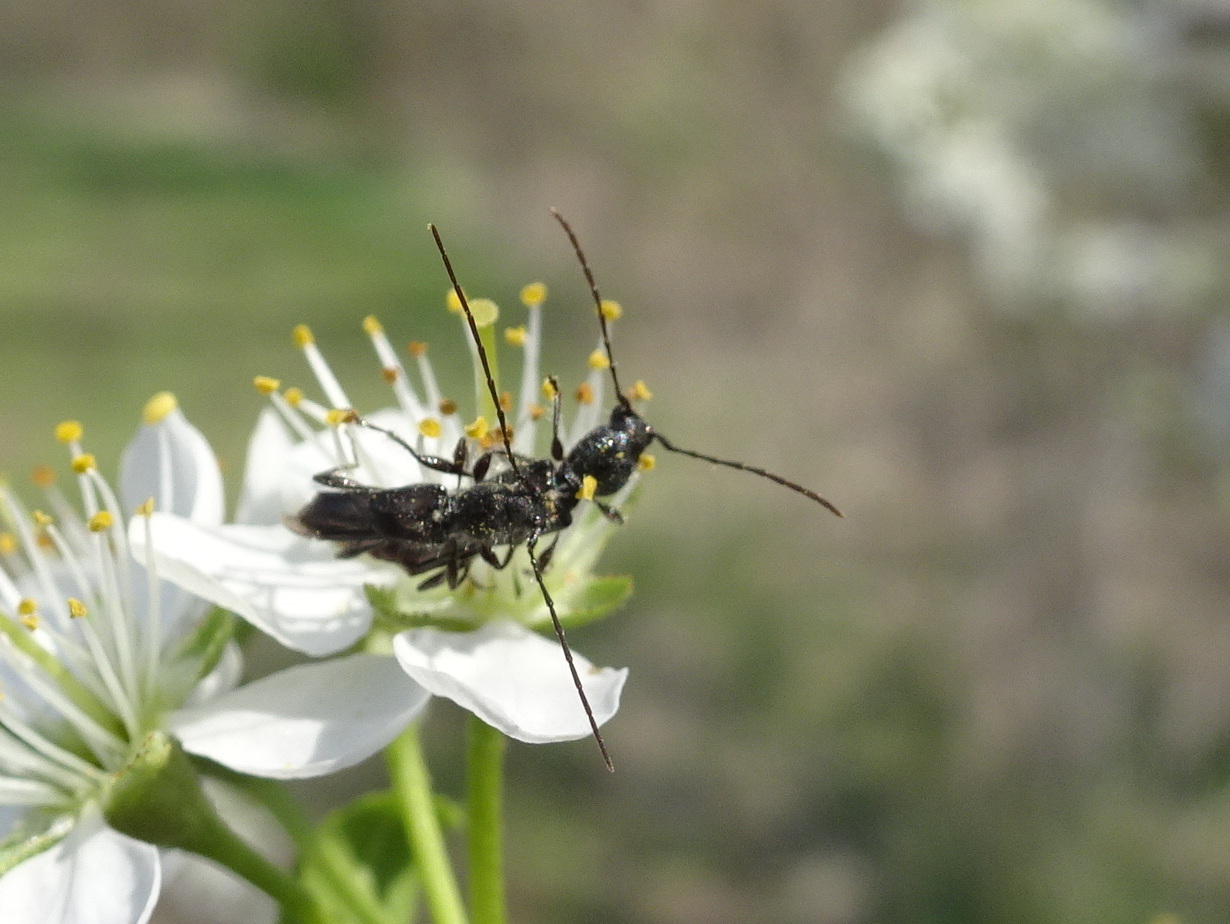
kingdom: Animalia
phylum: Arthropoda
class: Insecta
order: Coleoptera
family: Cerambycidae
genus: Molorchus
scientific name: Molorchus bimaculatus
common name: Bimaculate longhorn beetle
